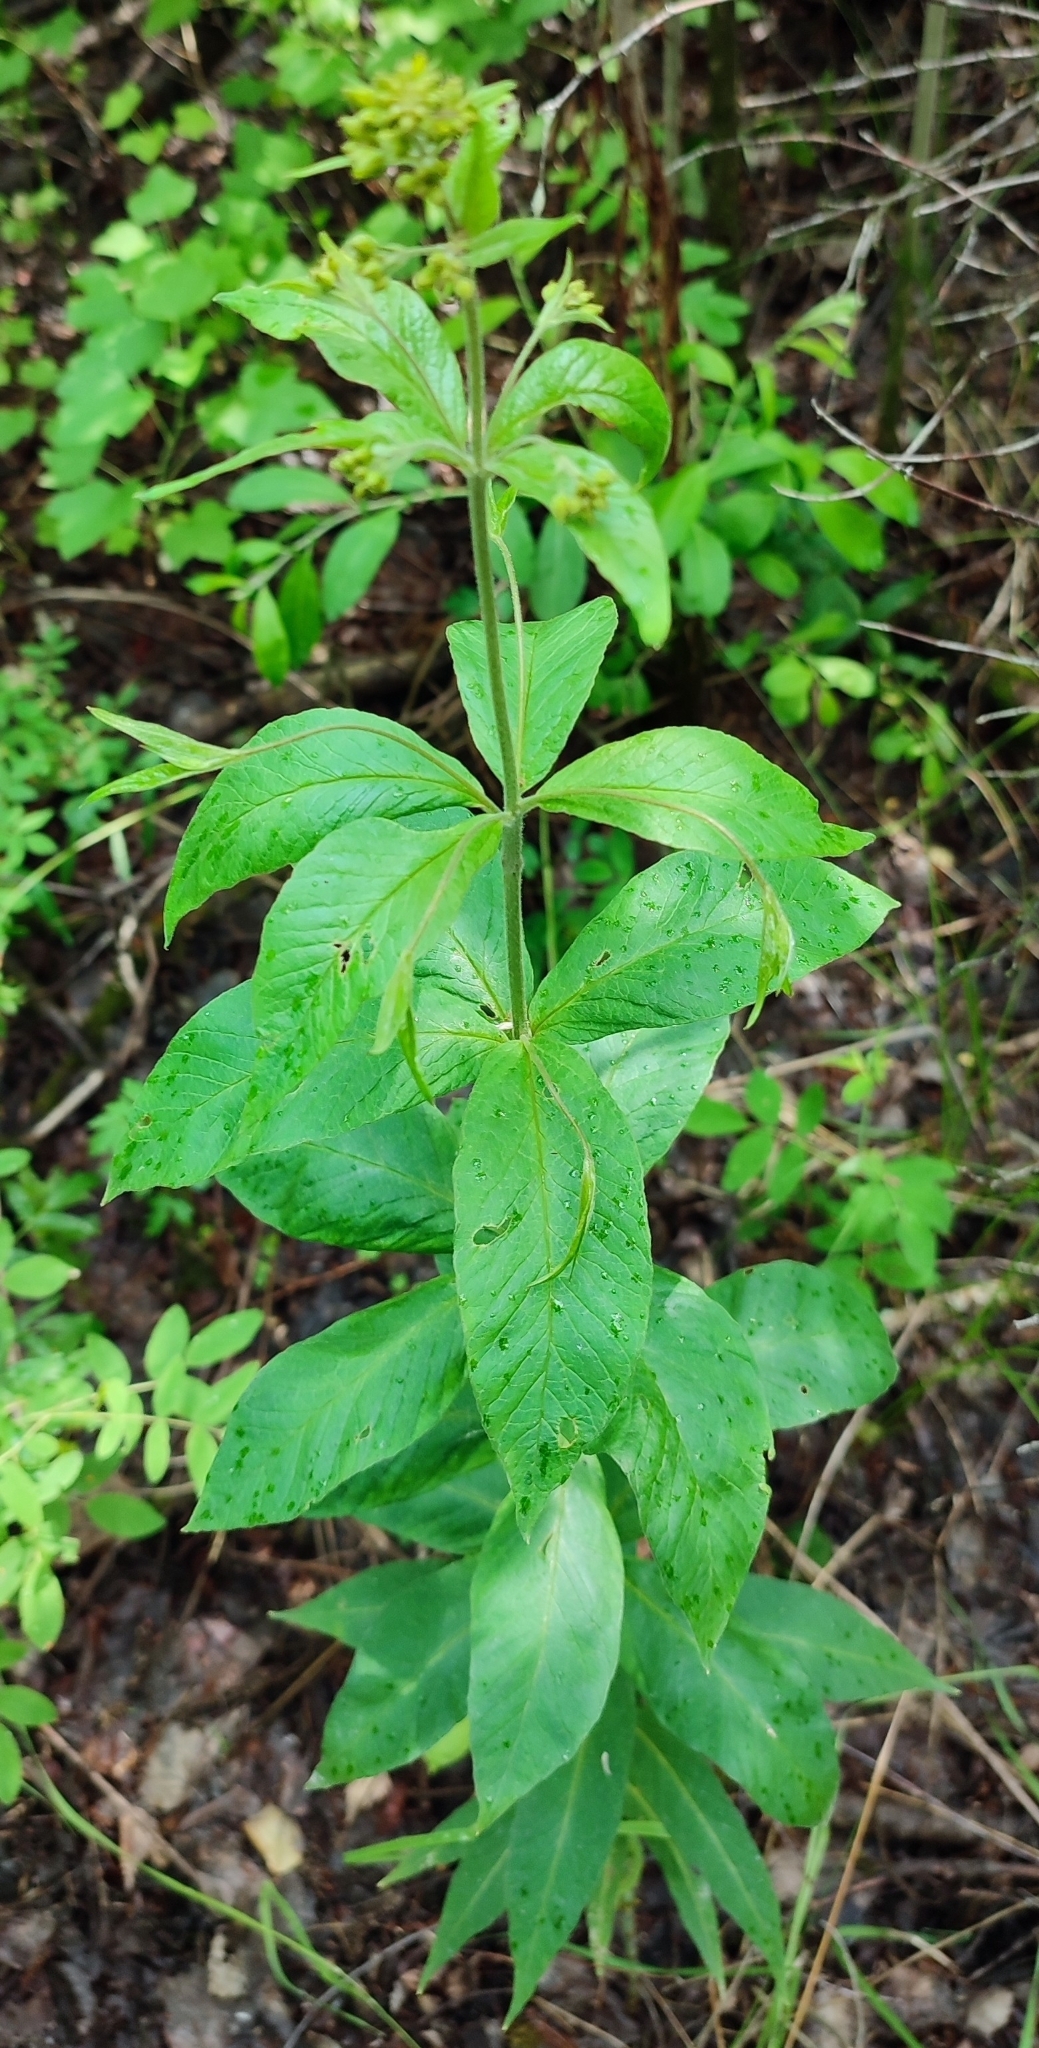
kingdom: Plantae
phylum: Tracheophyta
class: Magnoliopsida
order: Ericales
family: Primulaceae
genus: Lysimachia
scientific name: Lysimachia vulgaris
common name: Yellow loosestrife
